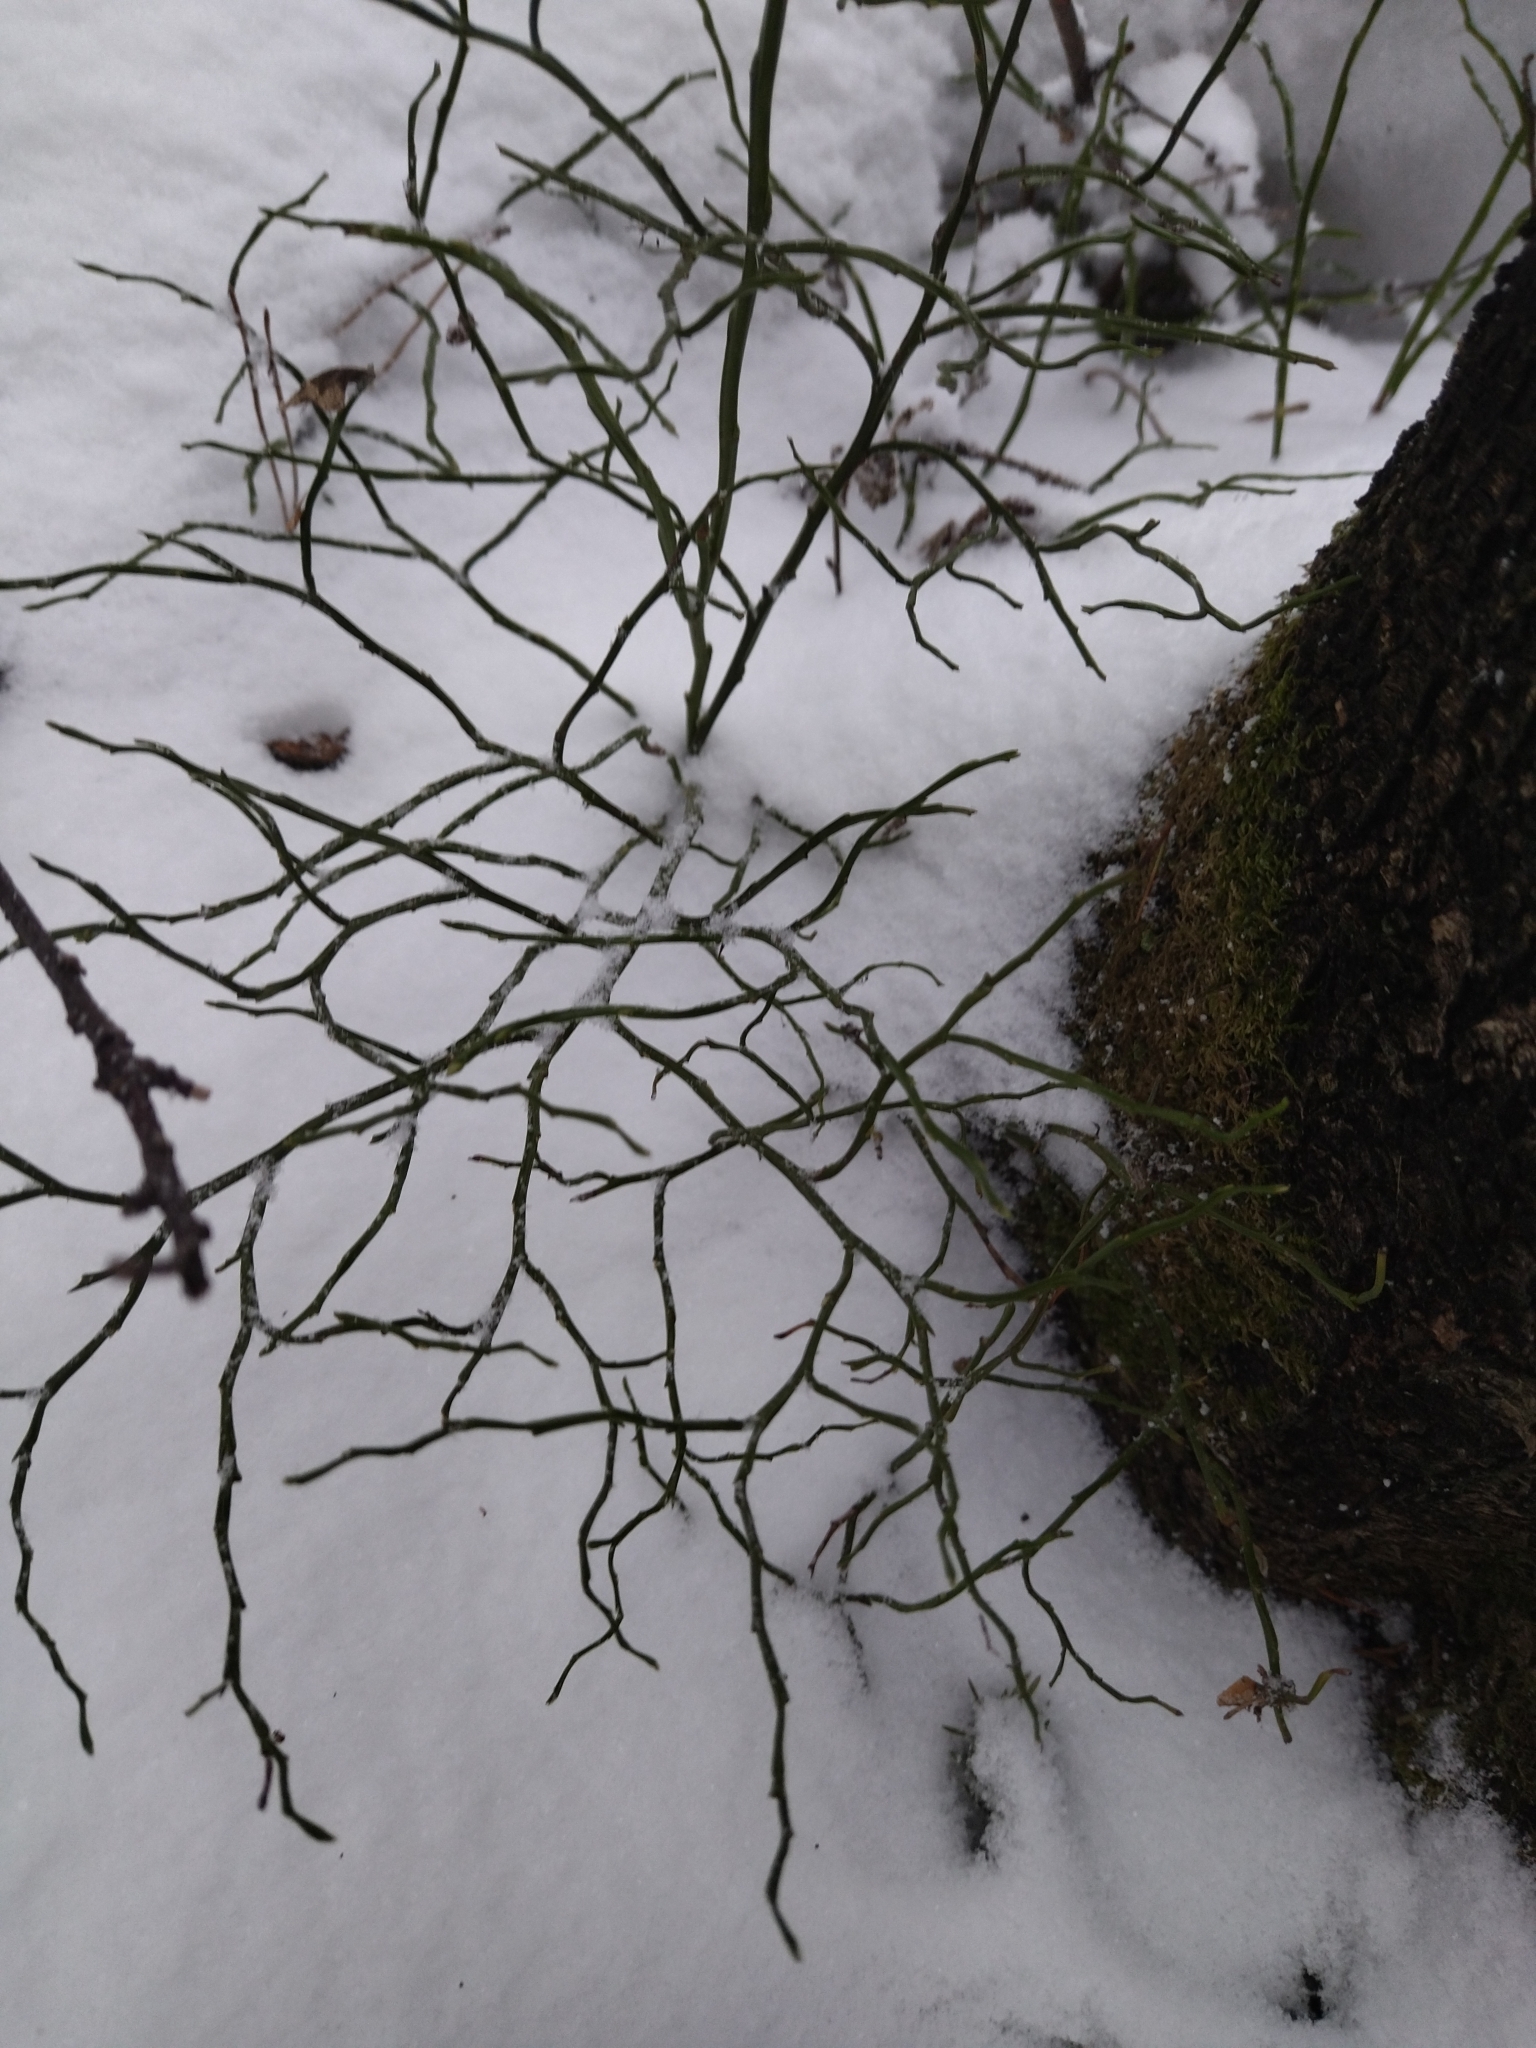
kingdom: Plantae
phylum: Tracheophyta
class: Magnoliopsida
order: Ericales
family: Ericaceae
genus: Vaccinium
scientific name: Vaccinium myrtillus
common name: Bilberry
